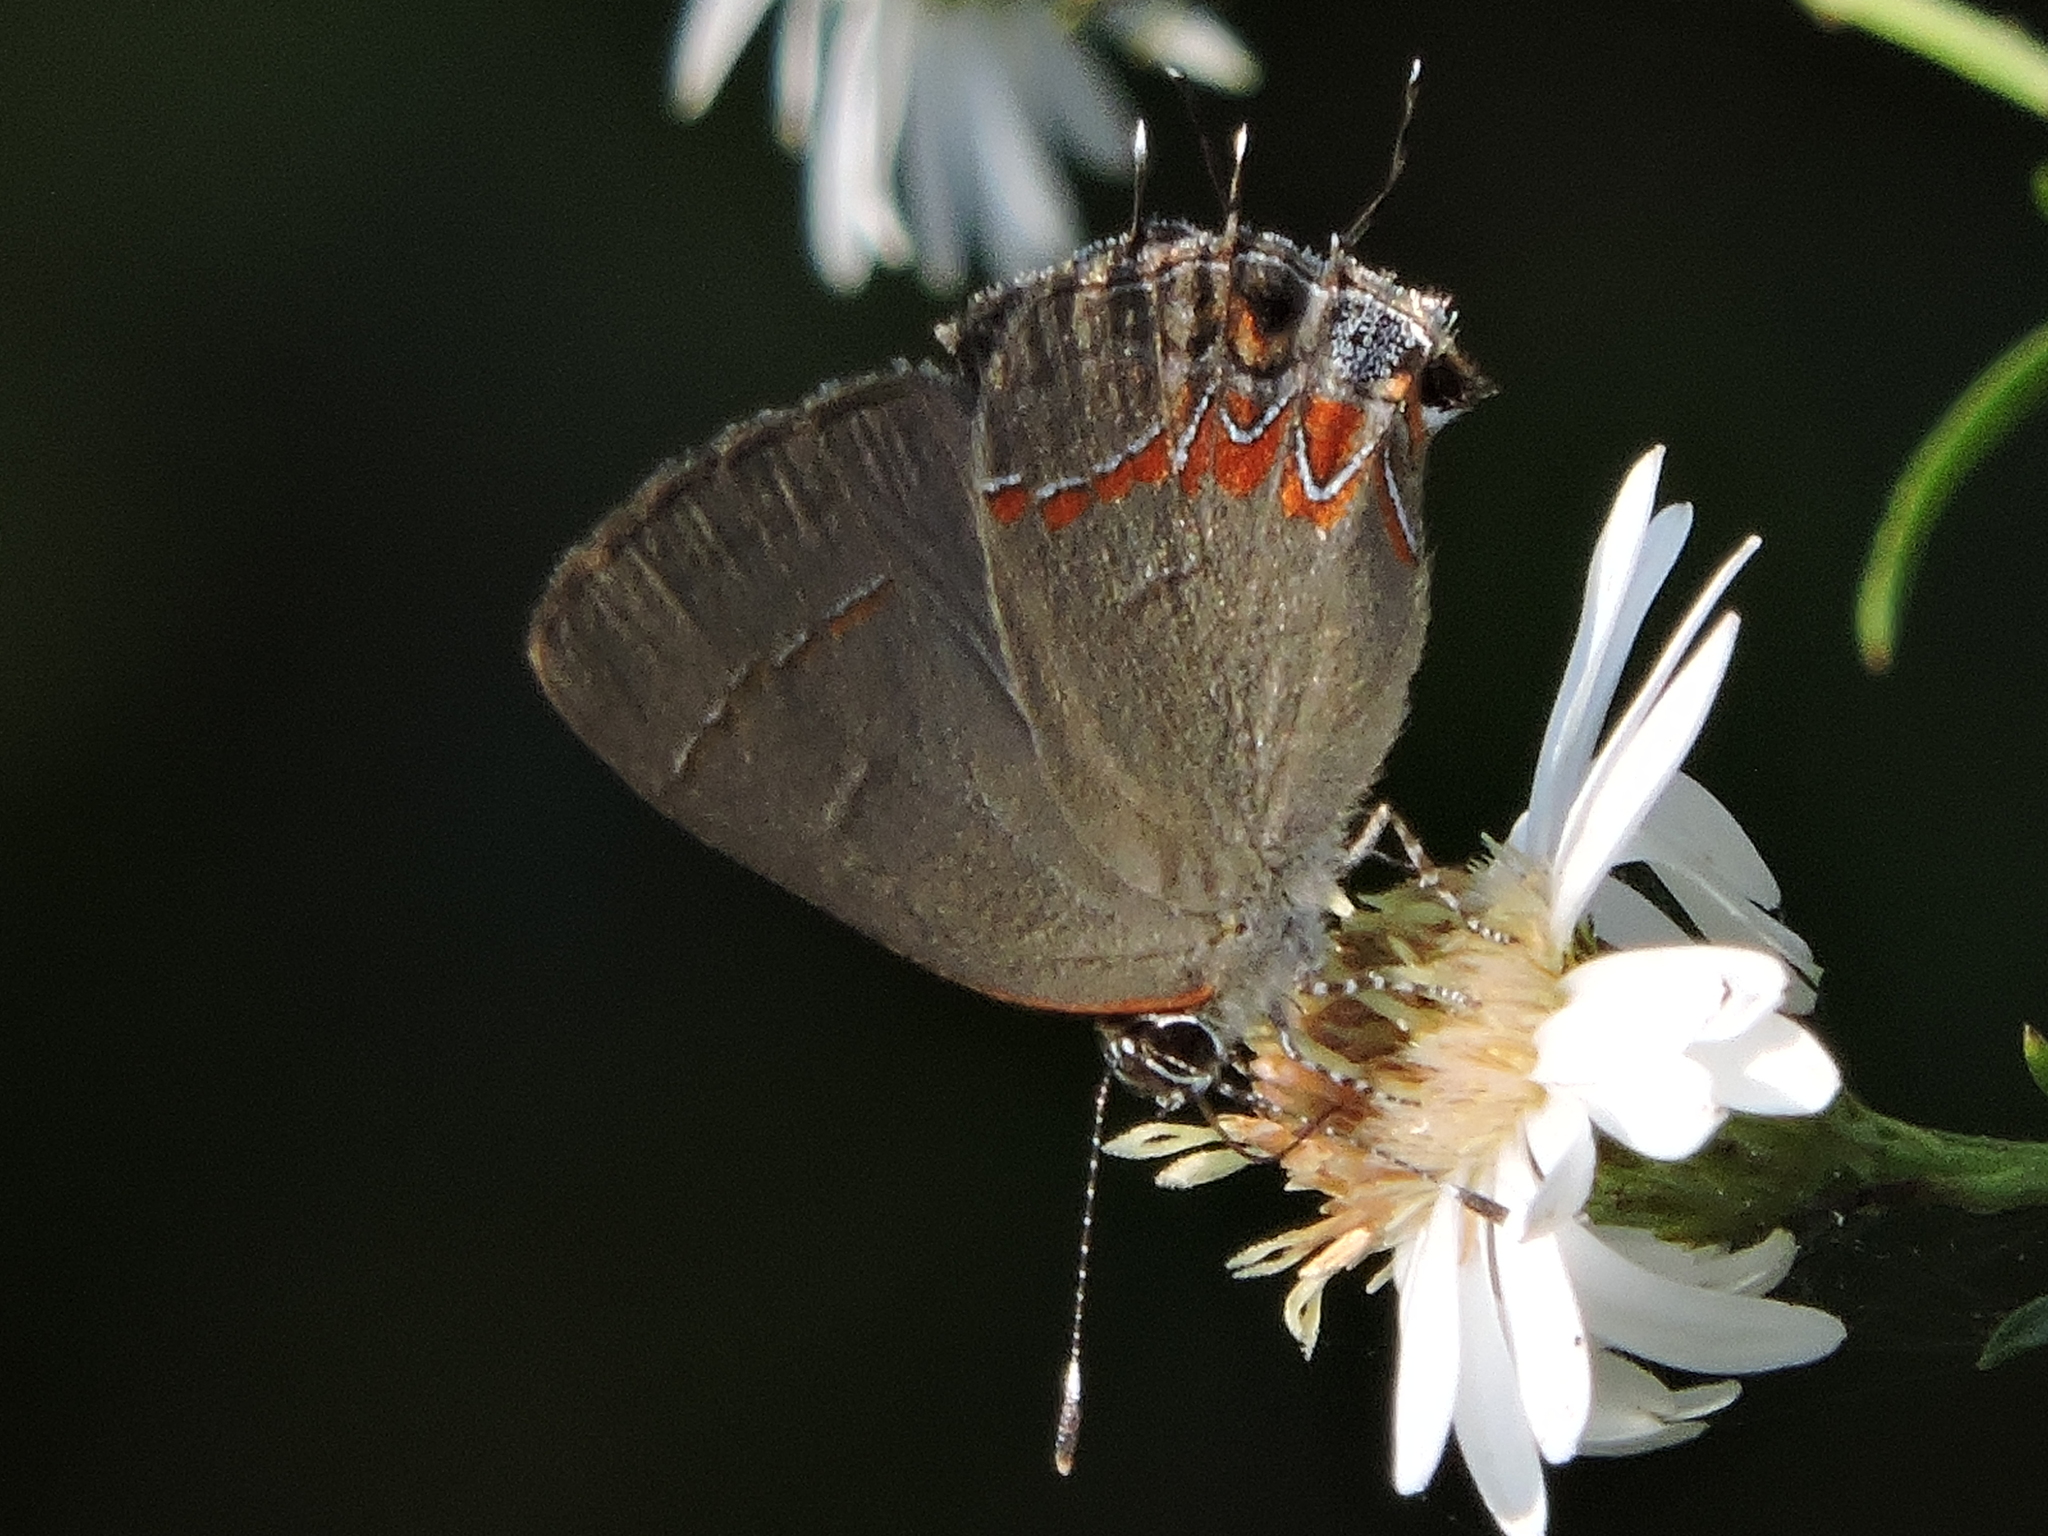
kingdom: Animalia
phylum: Arthropoda
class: Insecta
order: Lepidoptera
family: Lycaenidae
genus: Calycopis
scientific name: Calycopis isobeon
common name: Dusky-blue groundstreak
